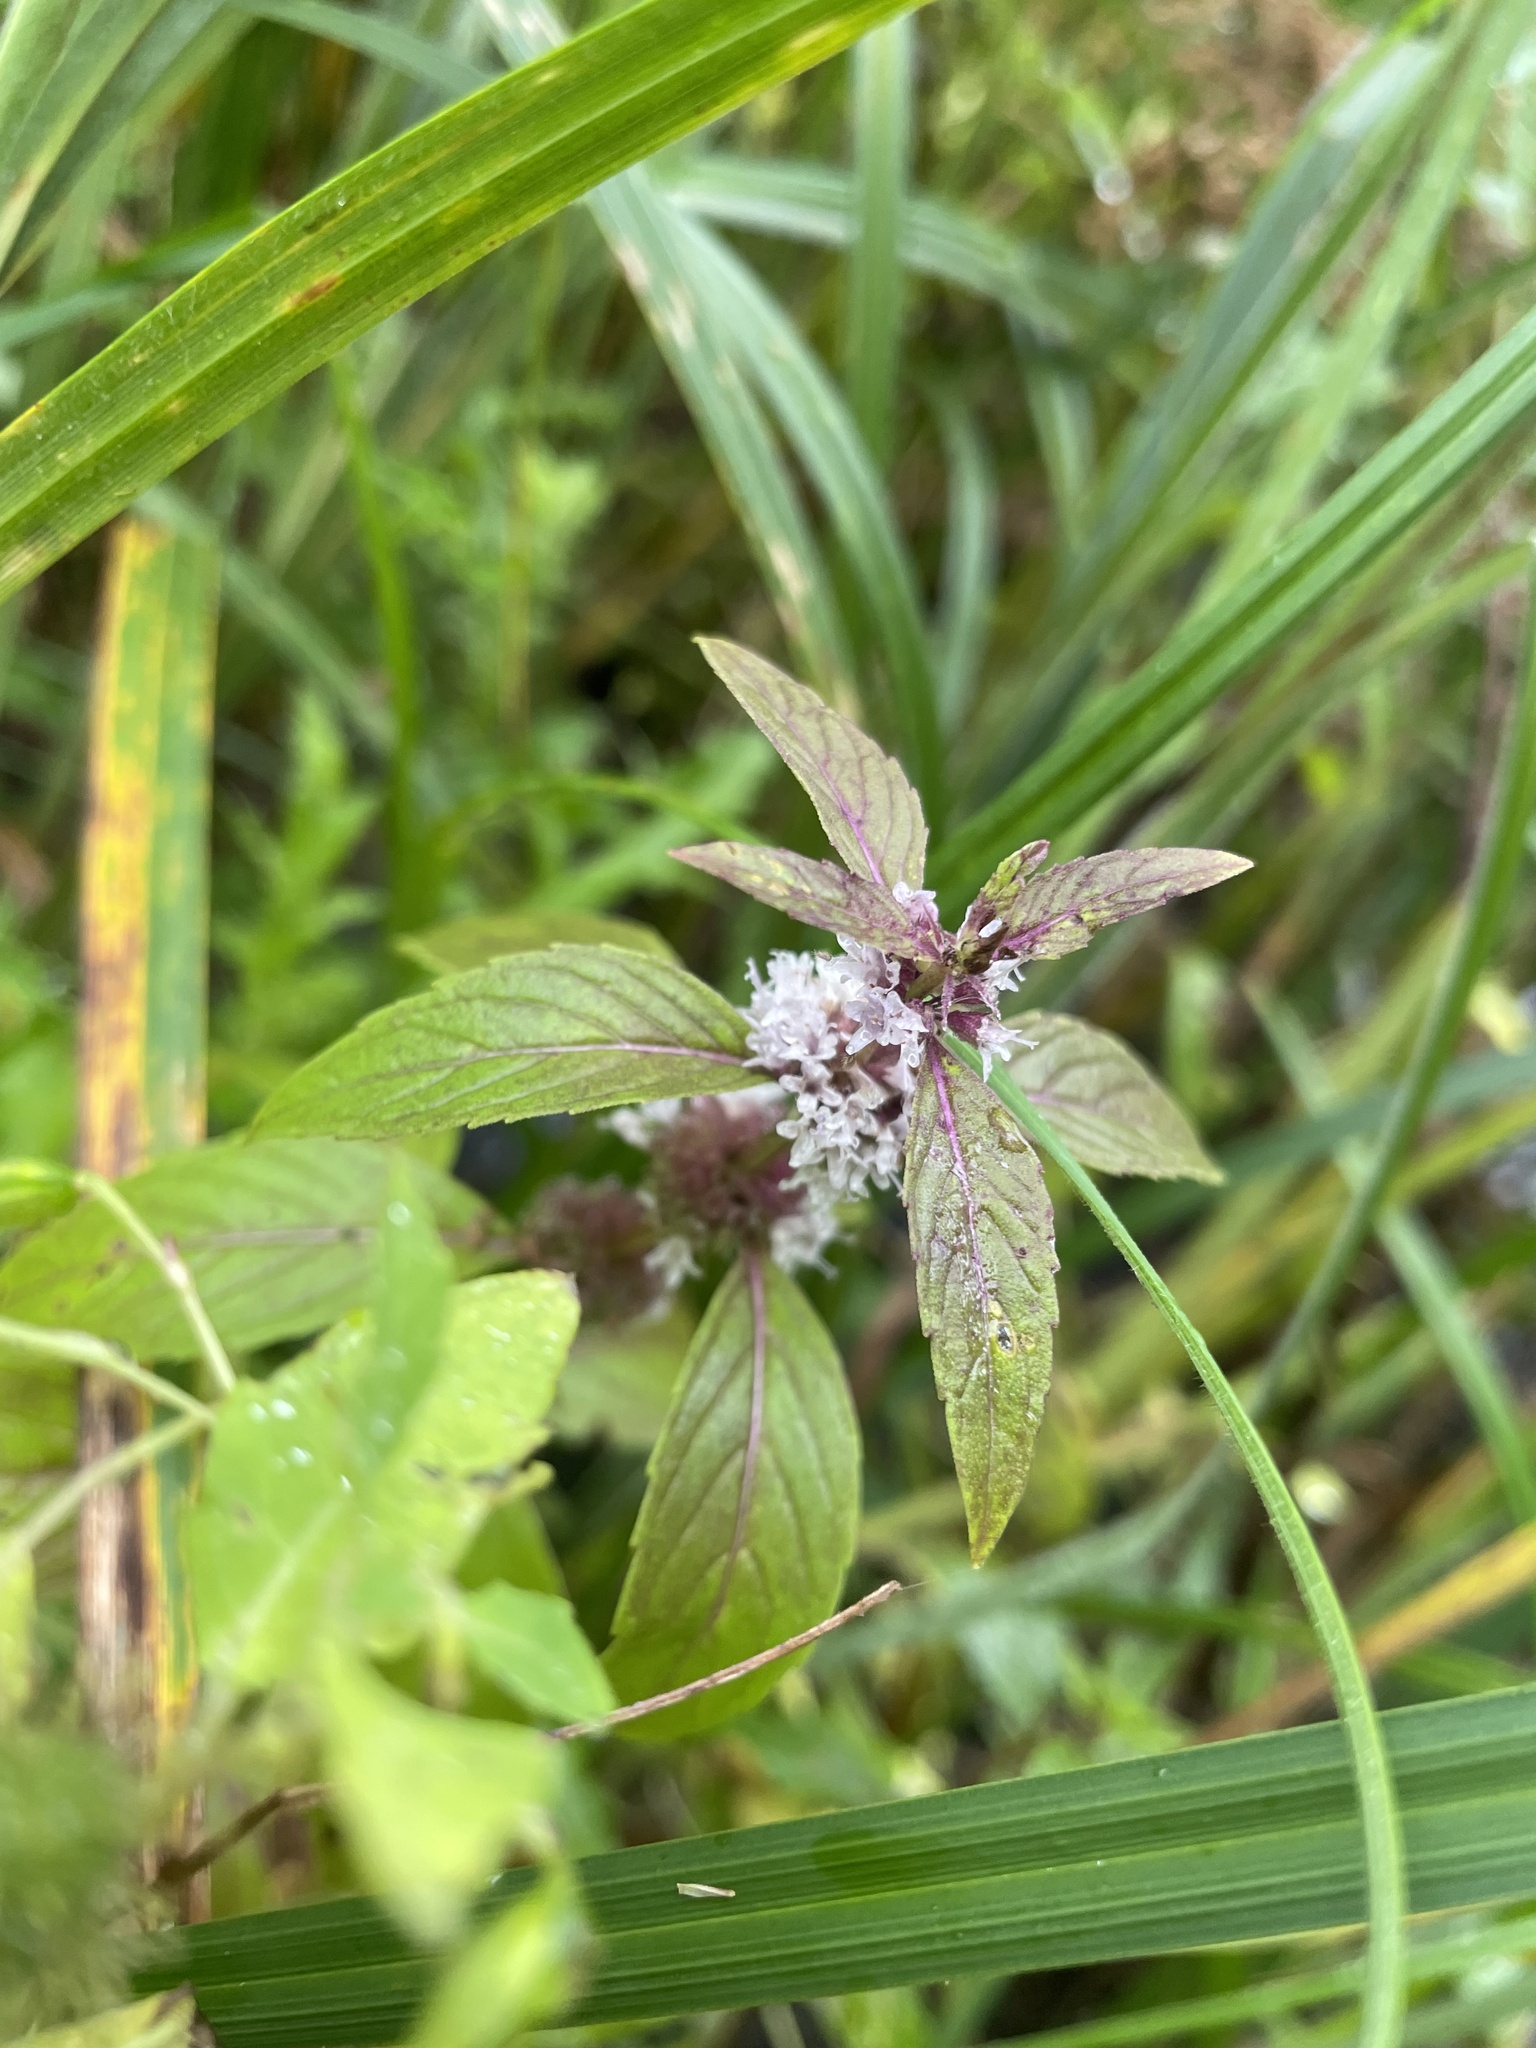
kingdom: Plantae
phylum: Tracheophyta
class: Magnoliopsida
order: Lamiales
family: Lamiaceae
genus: Mentha
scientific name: Mentha canadensis
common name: American corn mint
